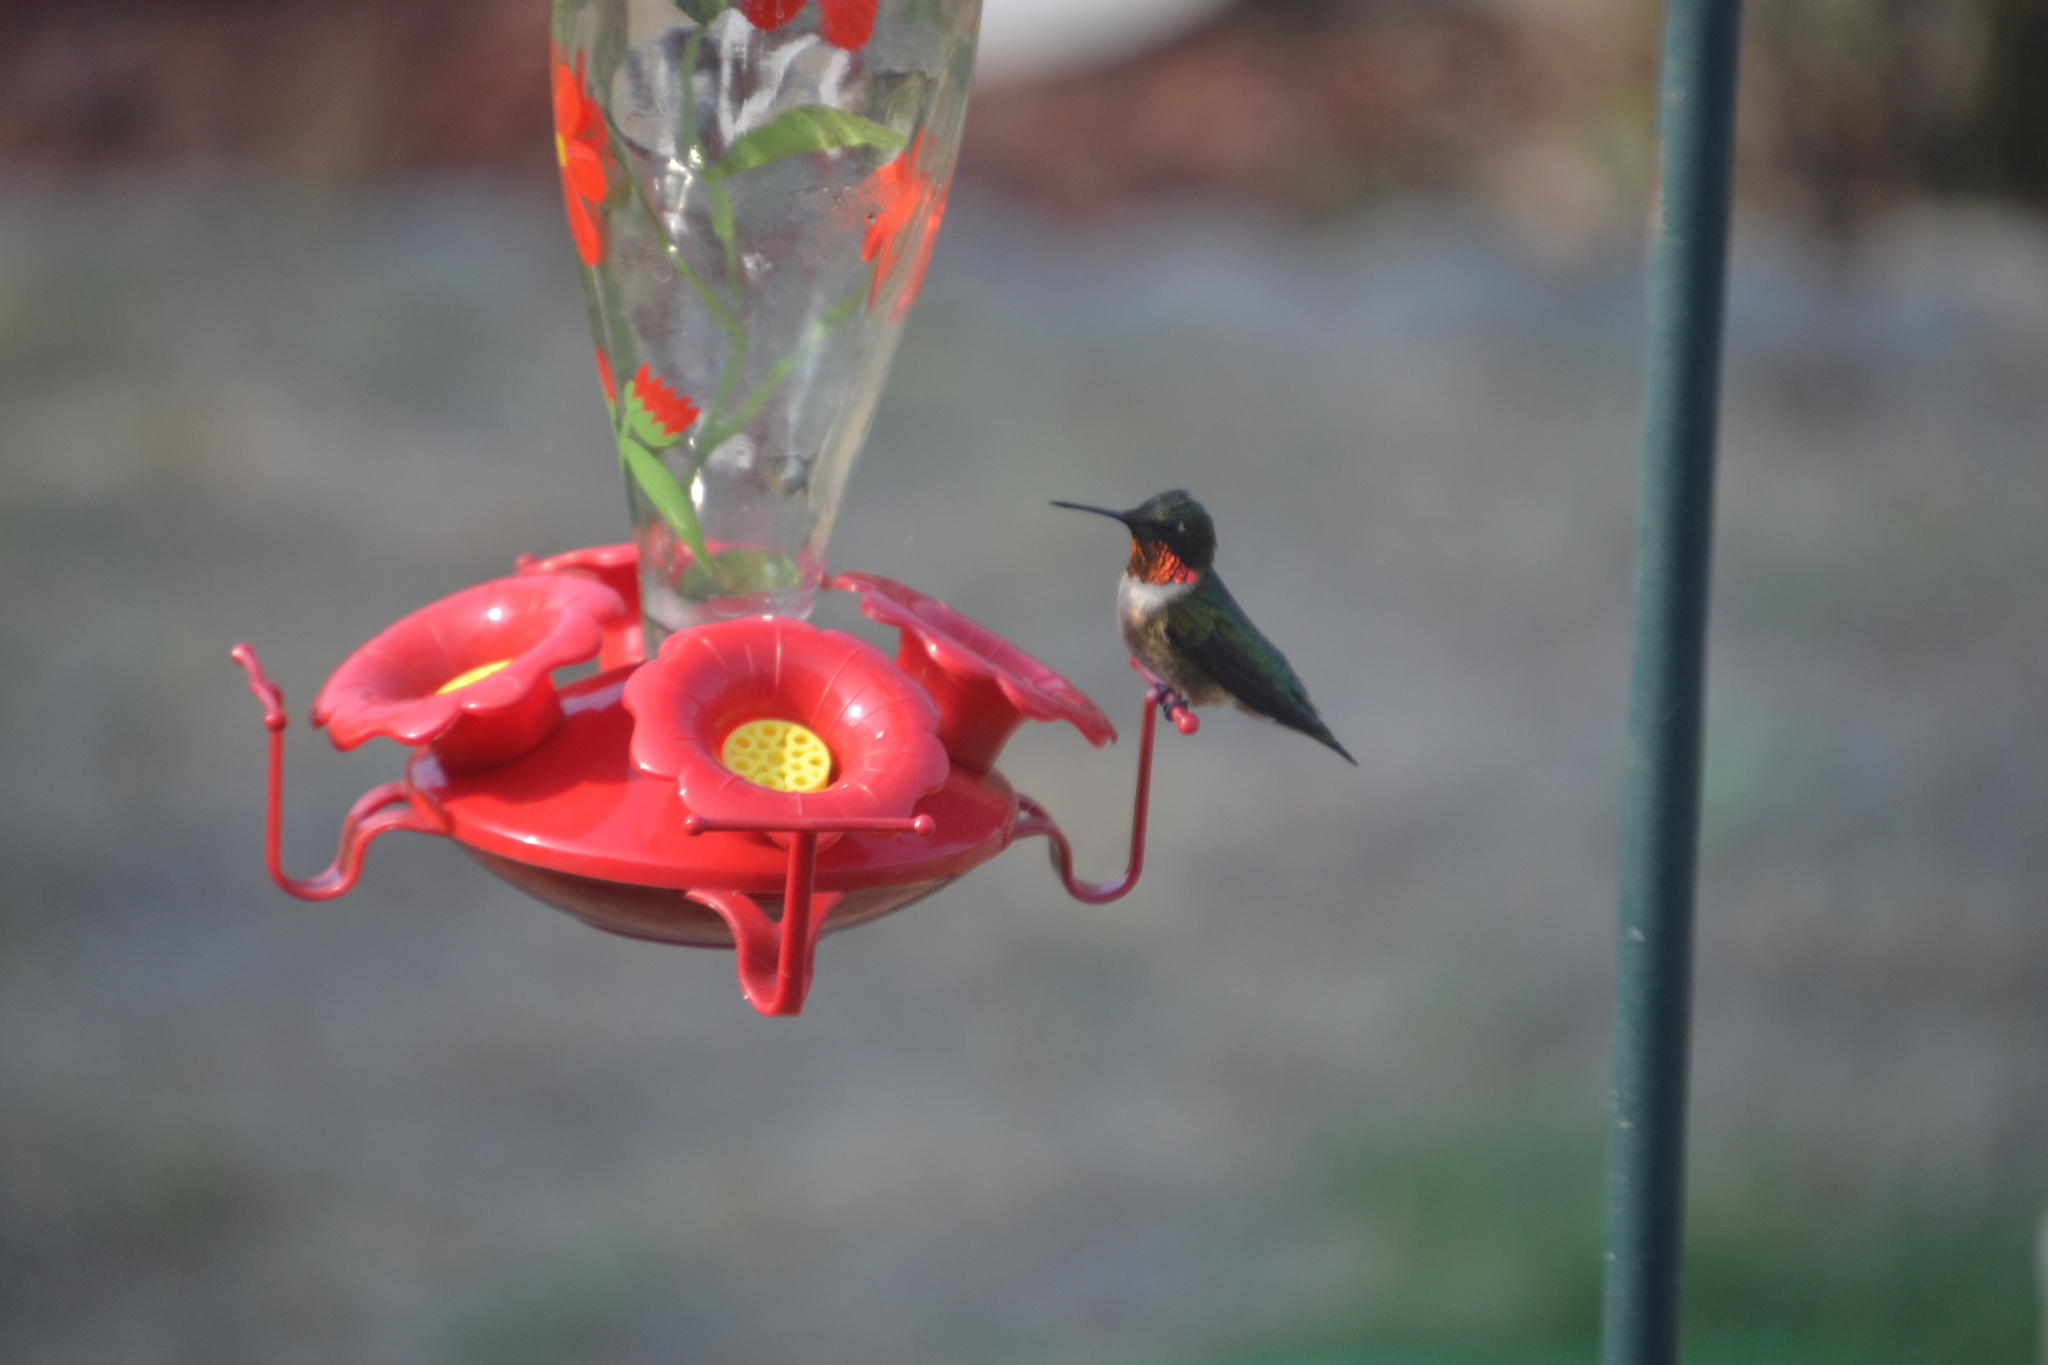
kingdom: Animalia
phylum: Chordata
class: Aves
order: Apodiformes
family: Trochilidae
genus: Archilochus
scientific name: Archilochus colubris
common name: Ruby-throated hummingbird
